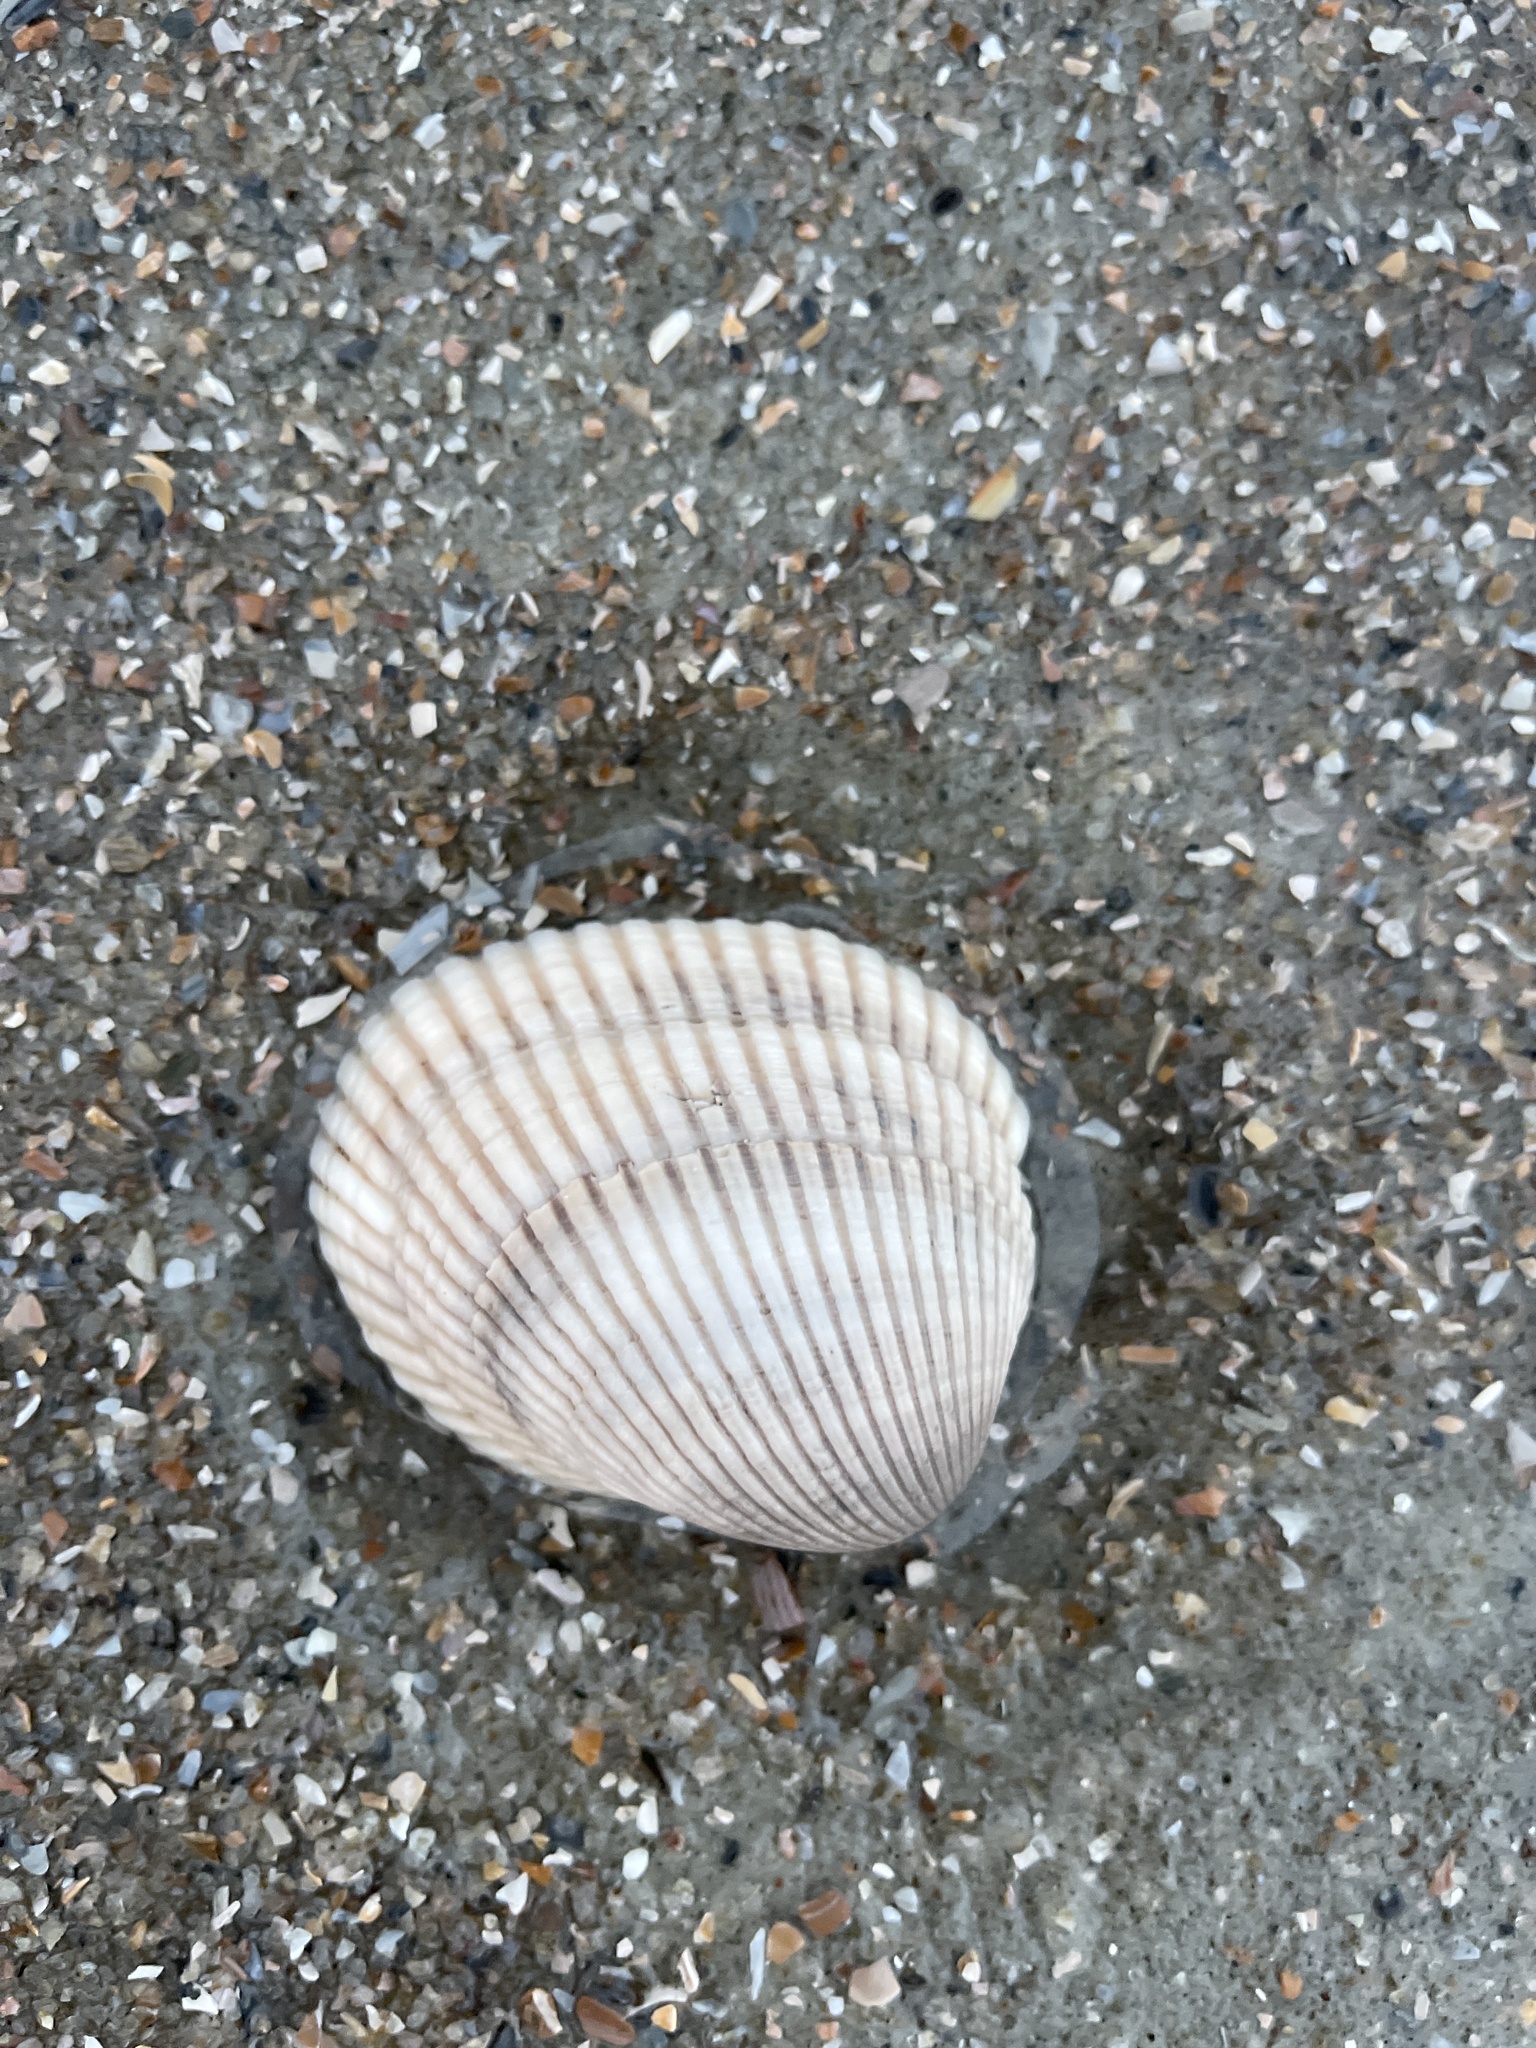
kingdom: Animalia
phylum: Mollusca
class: Bivalvia
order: Arcida
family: Arcidae
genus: Lunarca
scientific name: Lunarca ovalis
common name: Blood ark
